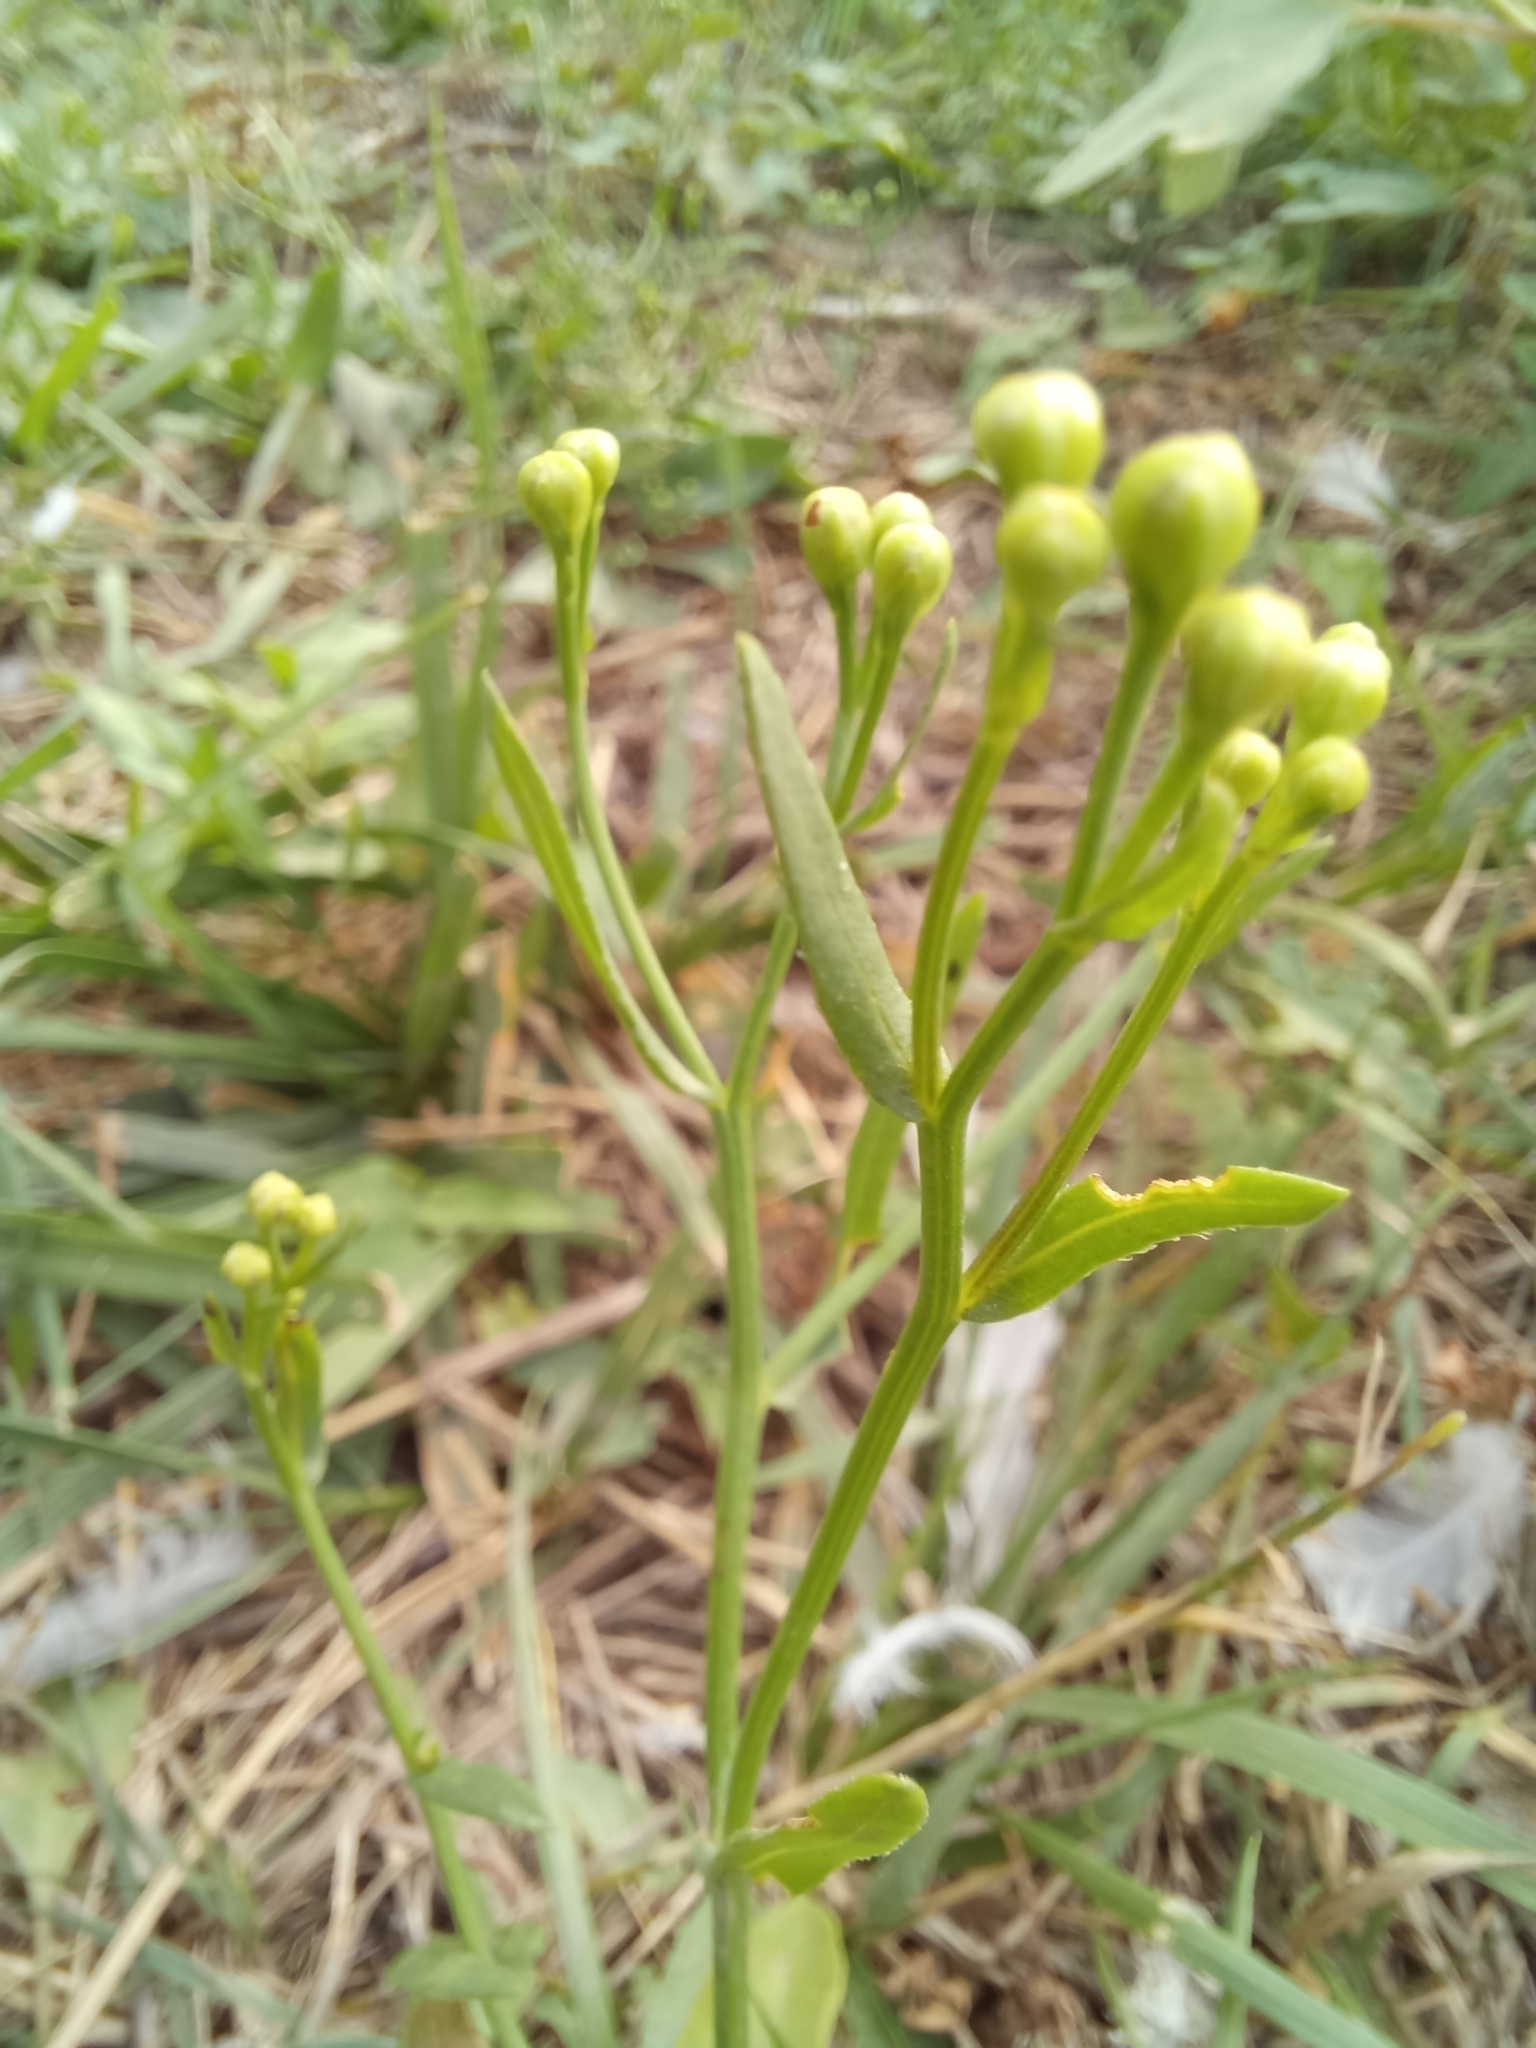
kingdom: Plantae
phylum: Tracheophyta
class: Magnoliopsida
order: Asterales
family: Asteraceae
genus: Tripolium
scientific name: Tripolium pannonicum
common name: Sea aster
